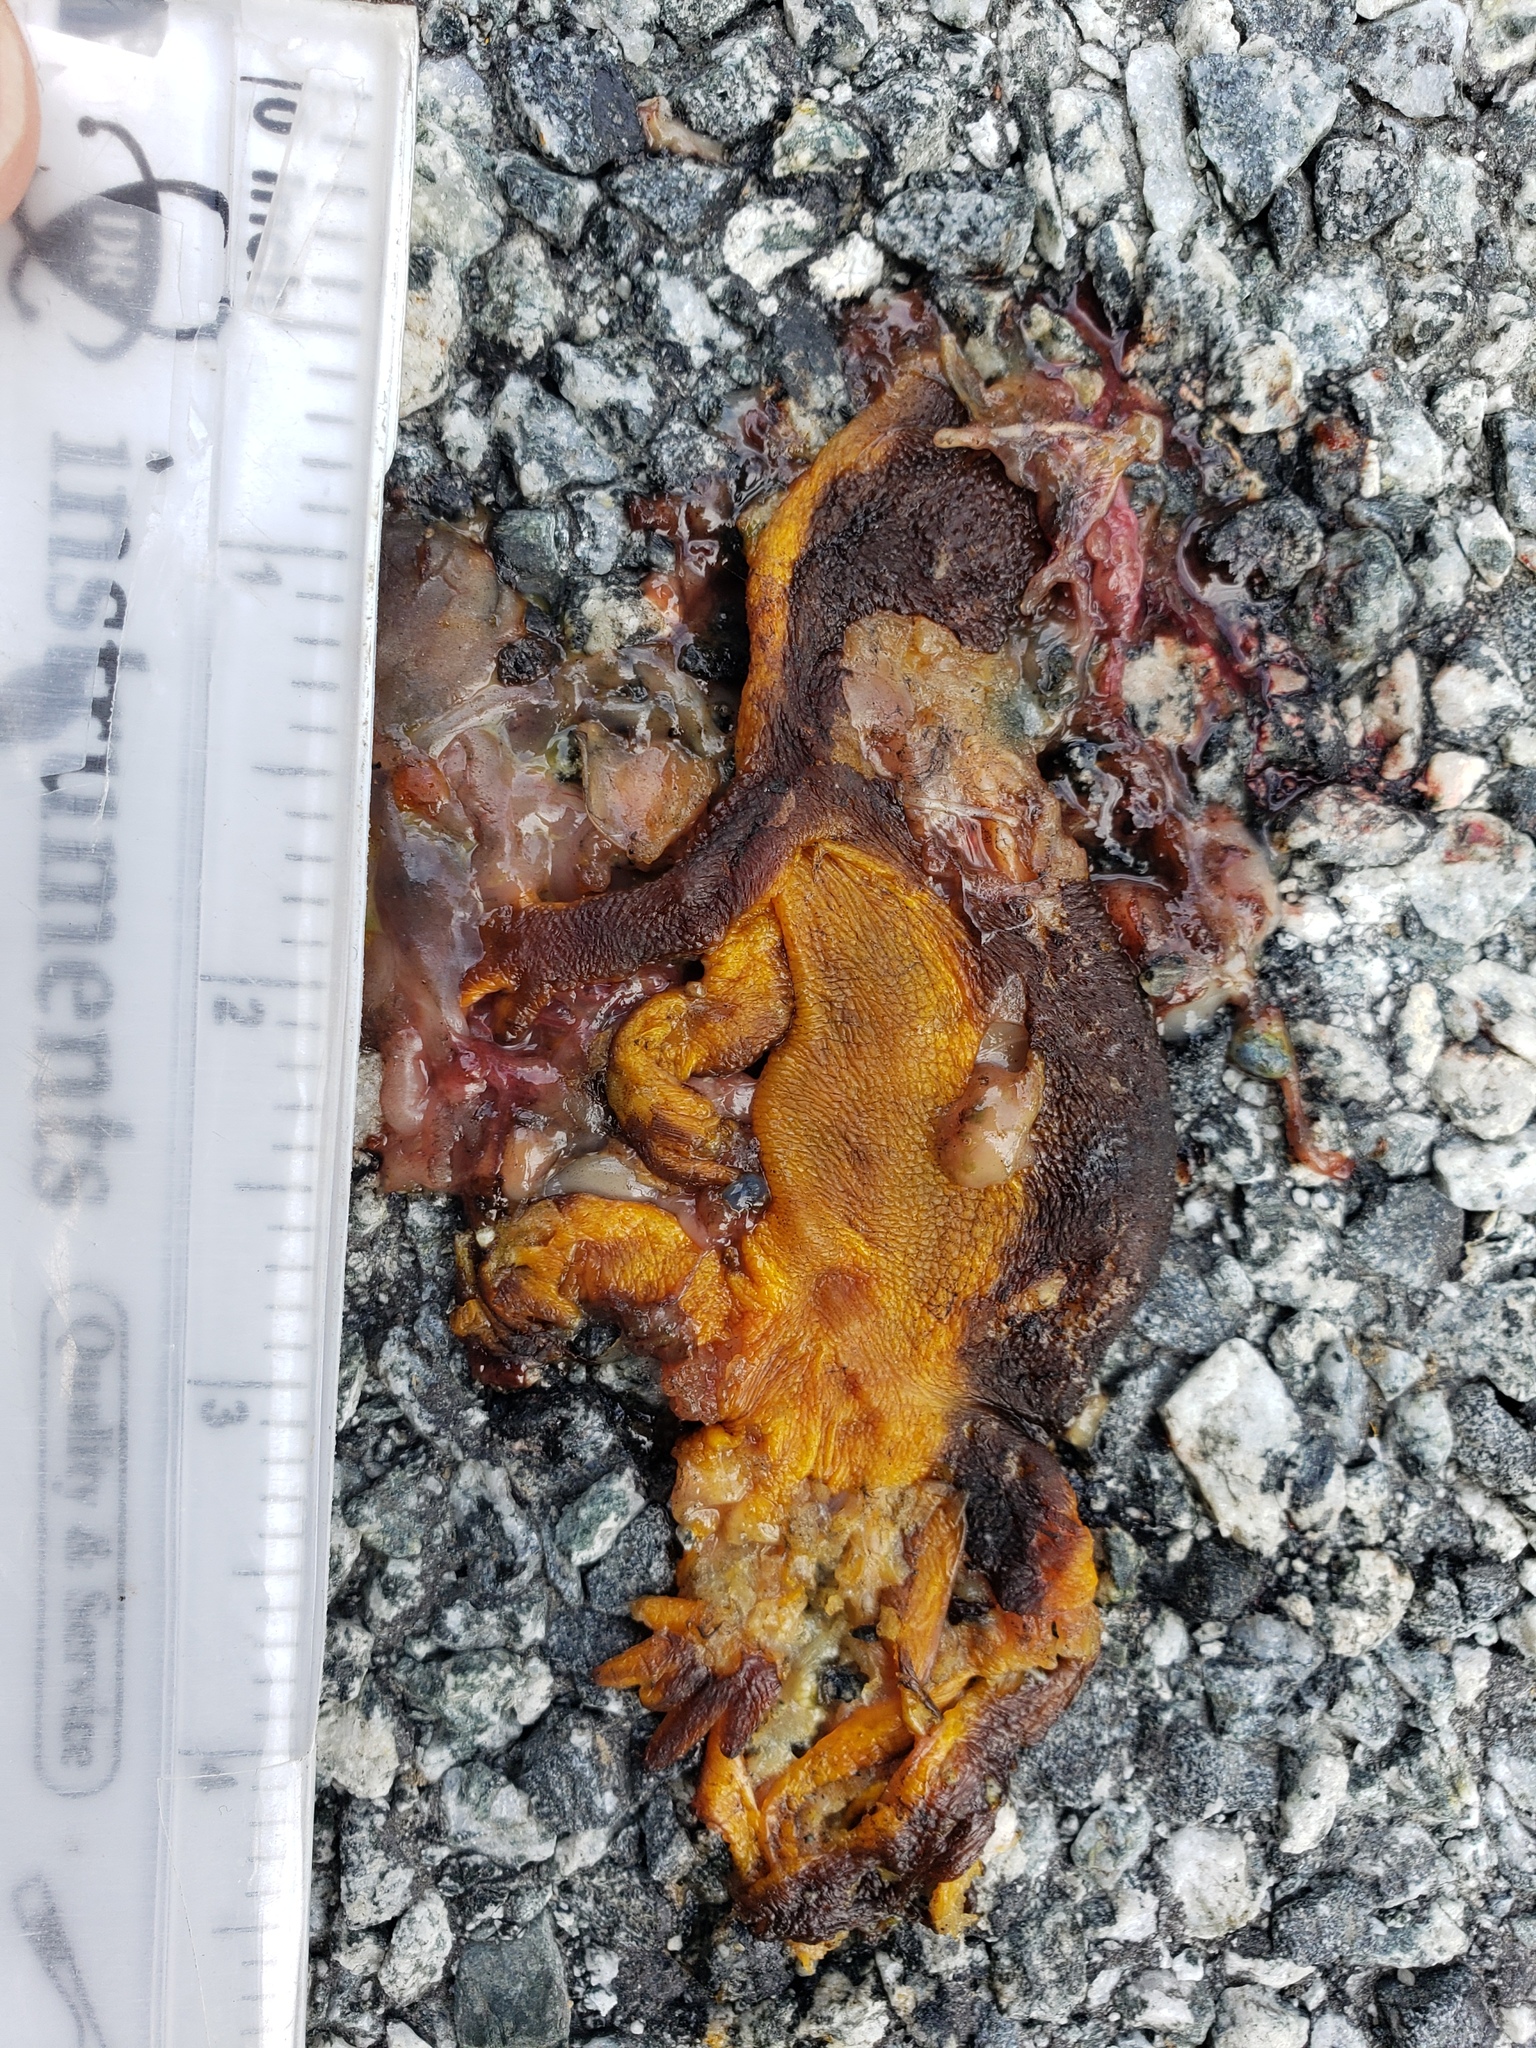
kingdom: Animalia
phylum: Chordata
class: Amphibia
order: Caudata
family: Salamandridae
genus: Taricha
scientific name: Taricha
